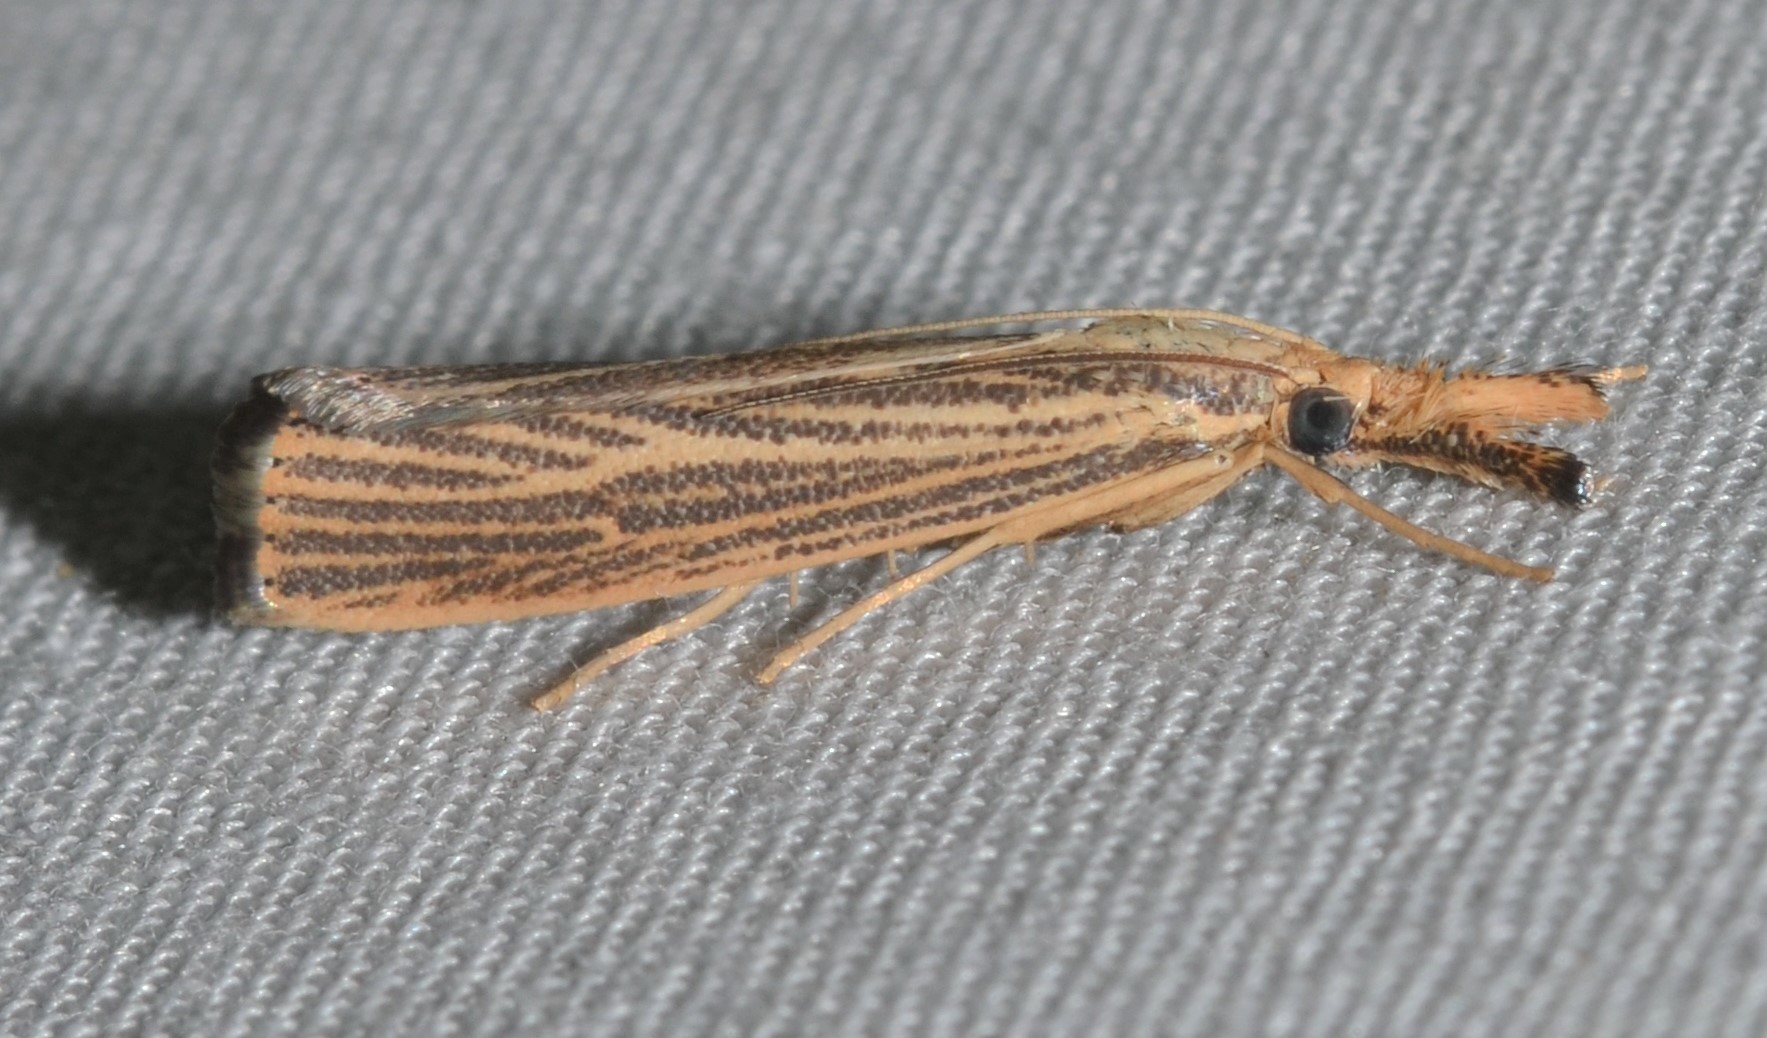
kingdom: Animalia
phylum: Arthropoda
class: Insecta
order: Lepidoptera
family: Crambidae
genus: Agriphila
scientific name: Agriphila vulgivagellus
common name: Vagabond crambus moth
